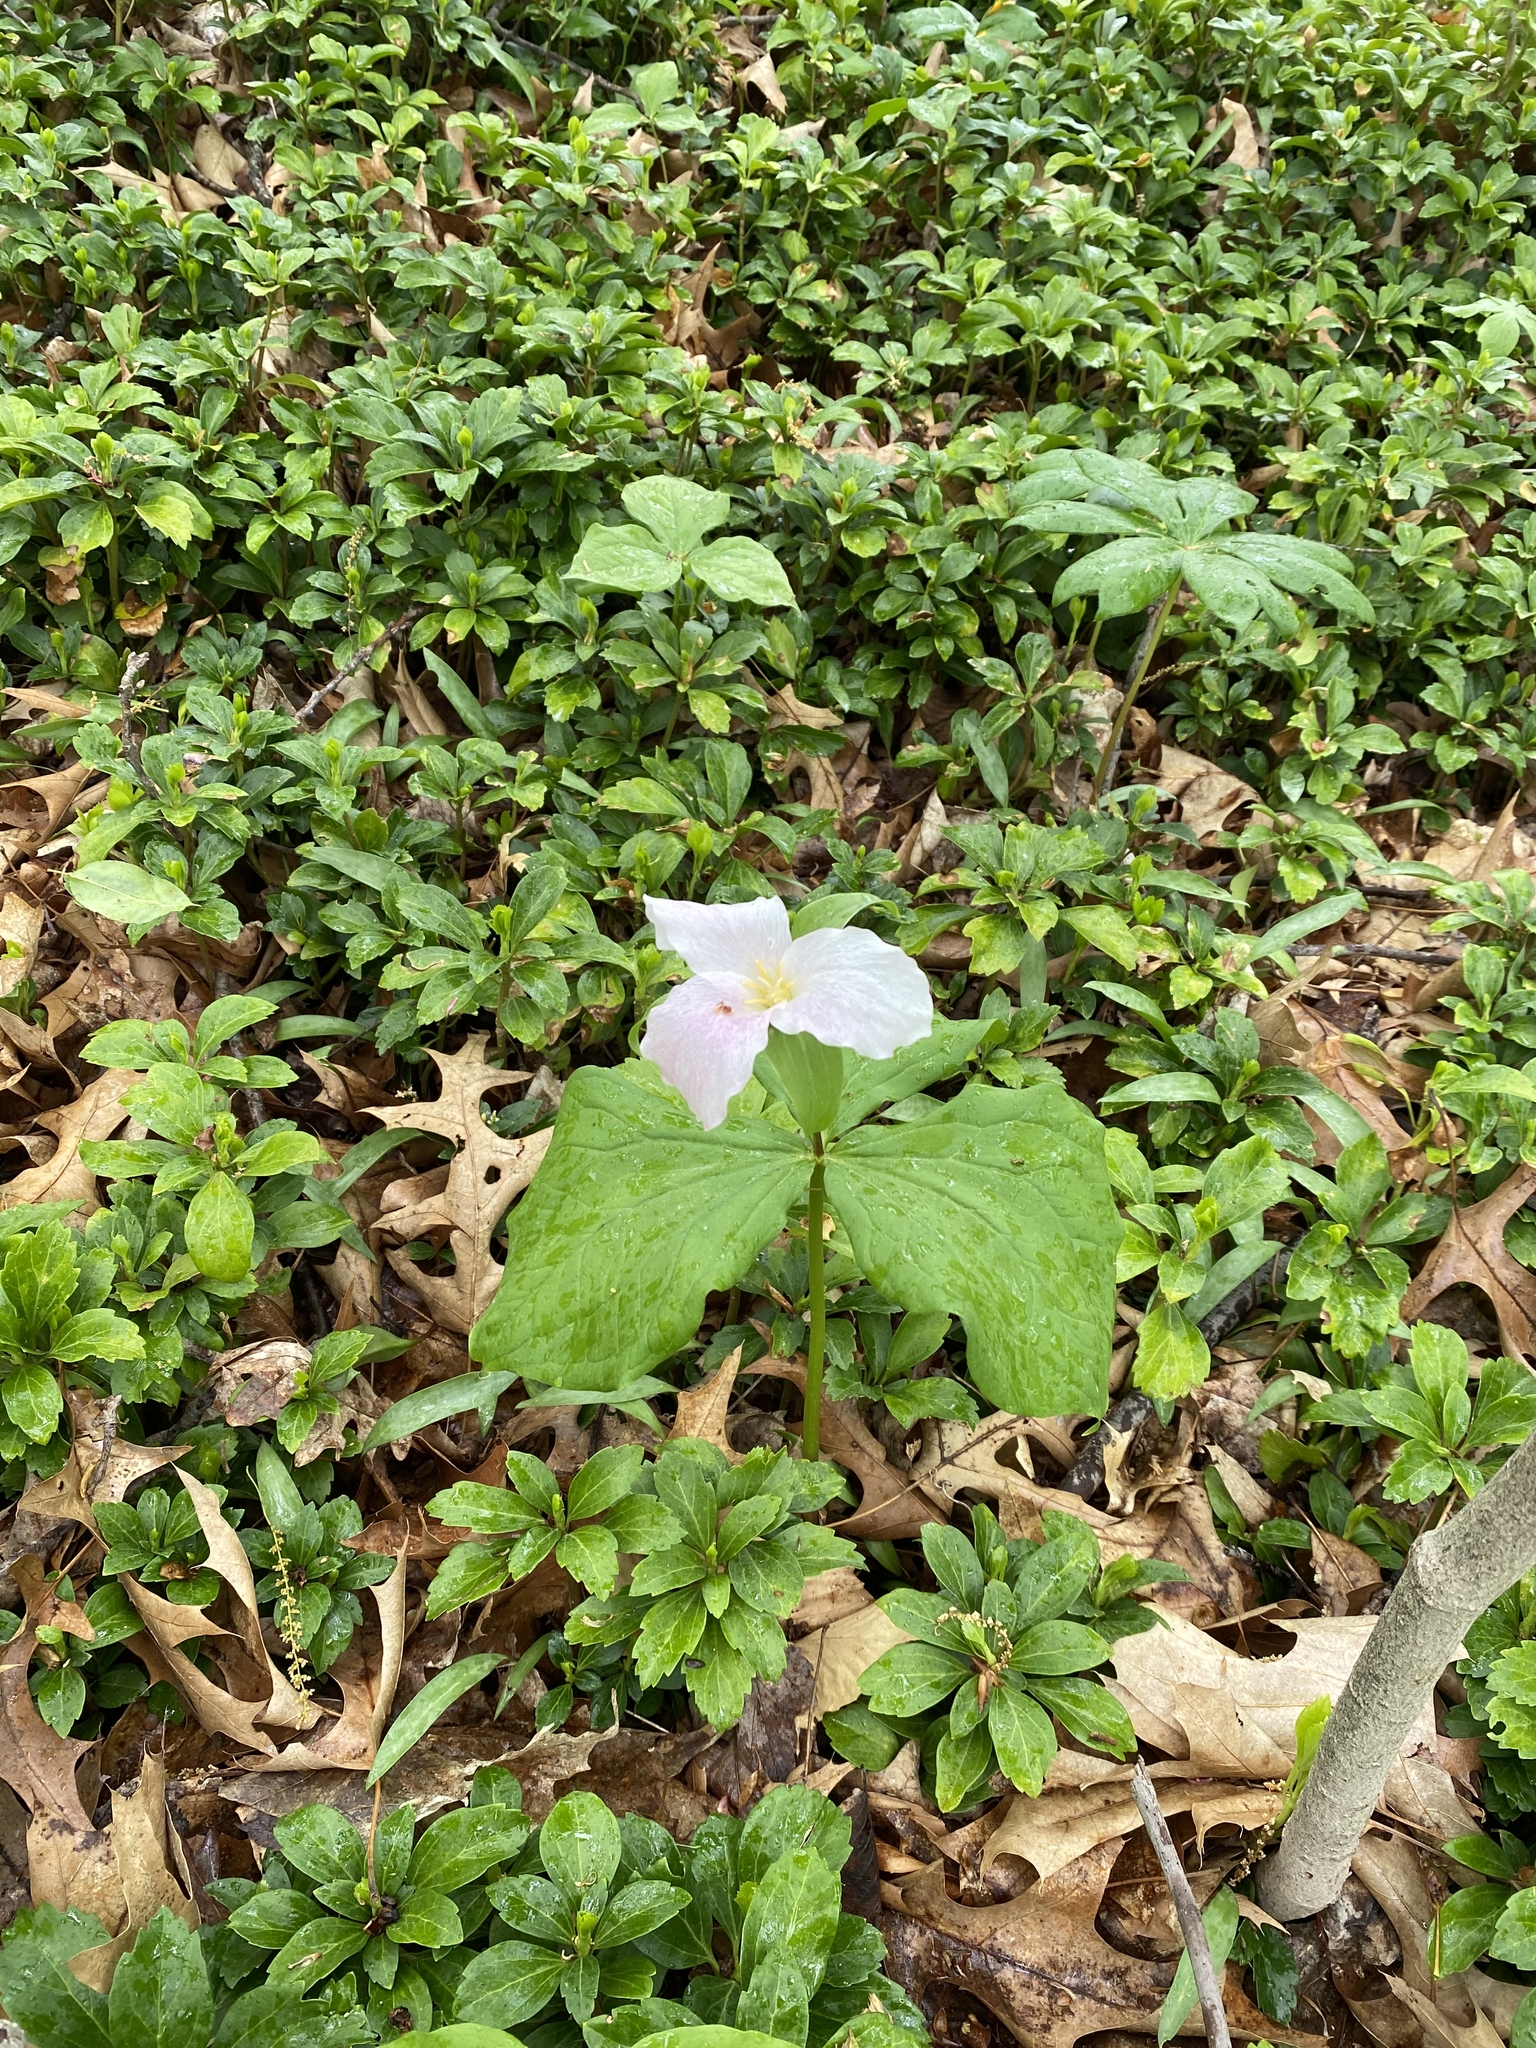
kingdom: Plantae
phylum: Tracheophyta
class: Liliopsida
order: Liliales
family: Melanthiaceae
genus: Trillium
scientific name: Trillium grandiflorum
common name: Great white trillium
